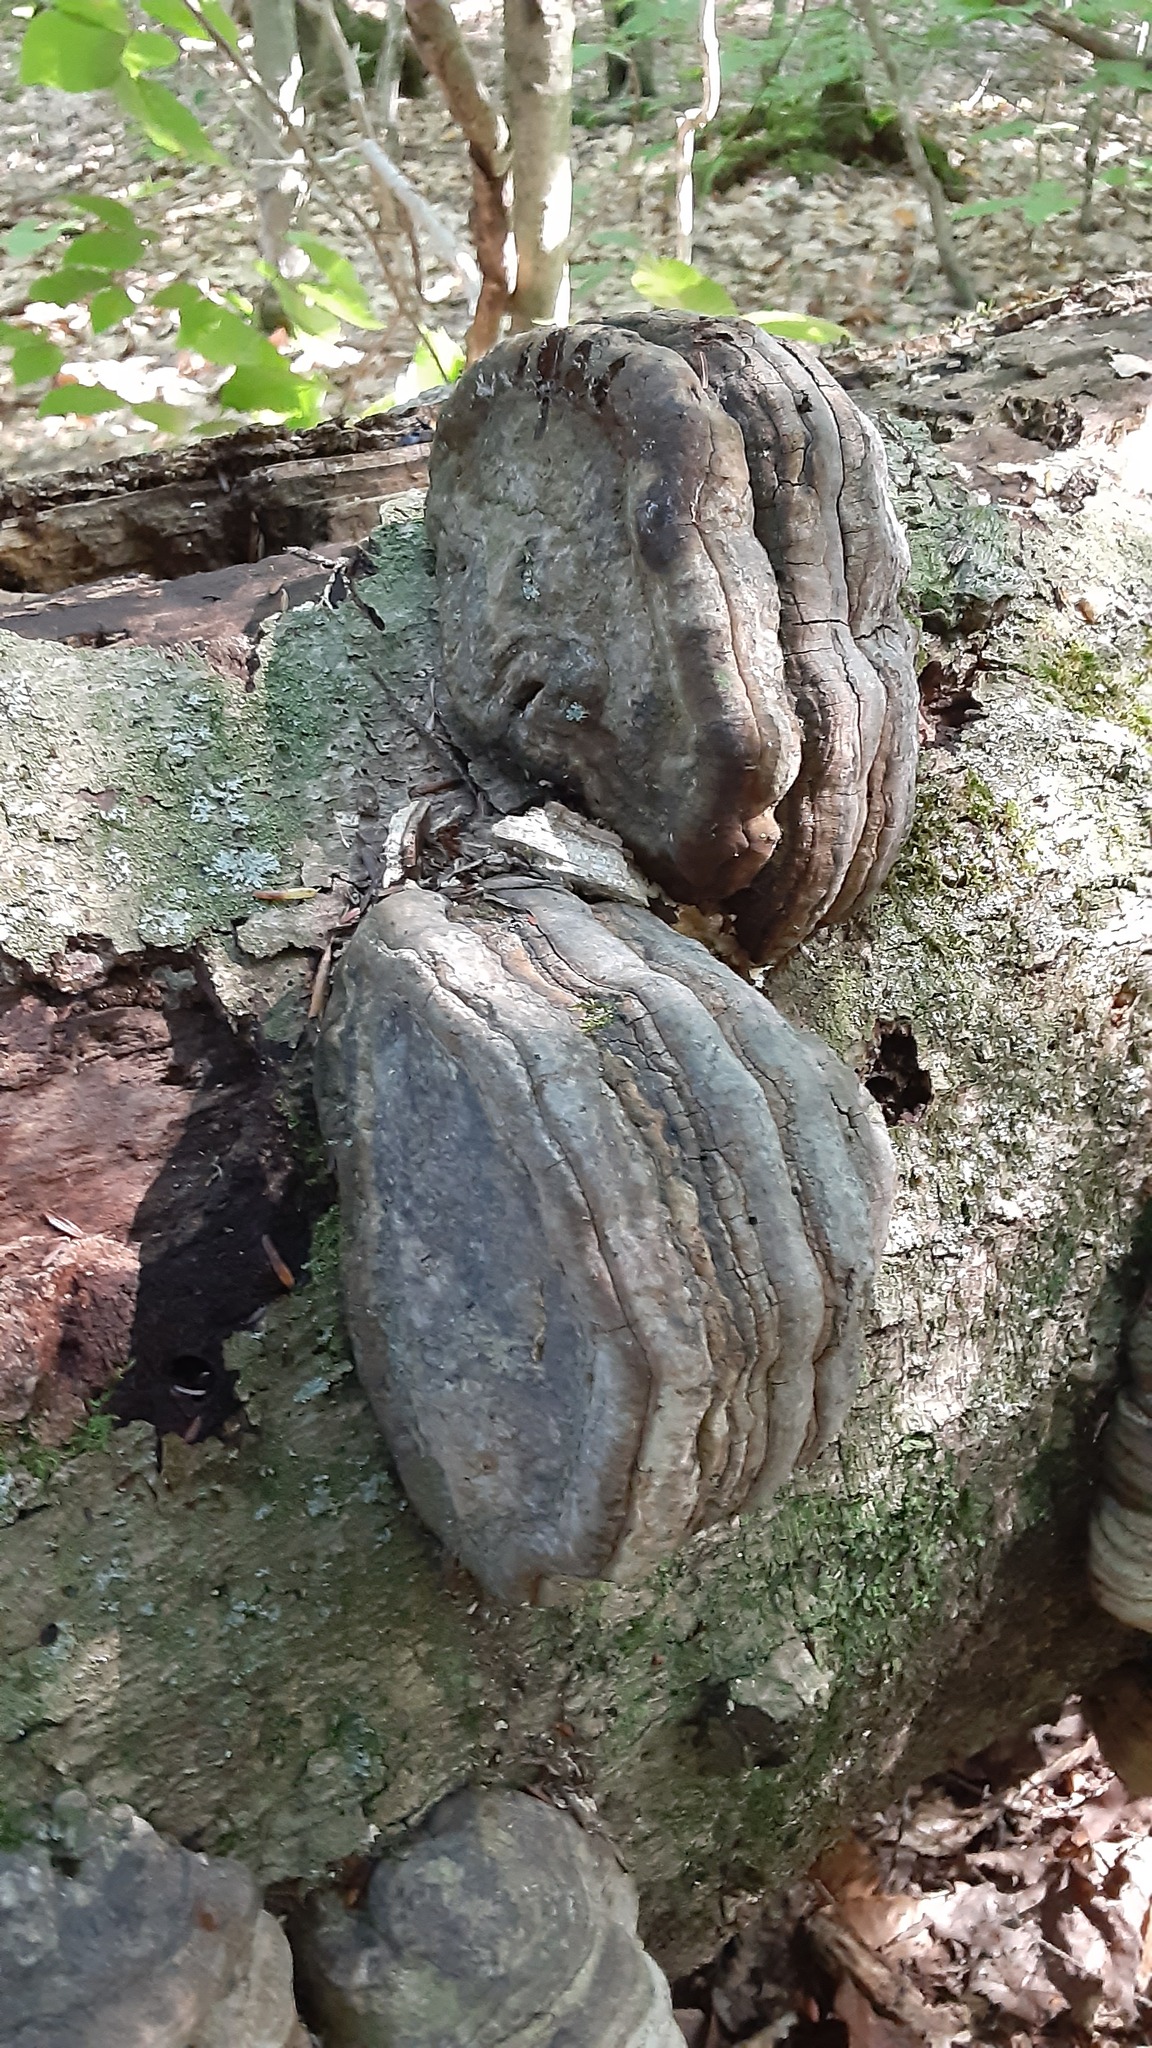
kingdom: Fungi
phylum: Basidiomycota
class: Agaricomycetes
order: Polyporales
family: Polyporaceae
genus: Fomes
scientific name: Fomes fomentarius
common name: Hoof fungus
